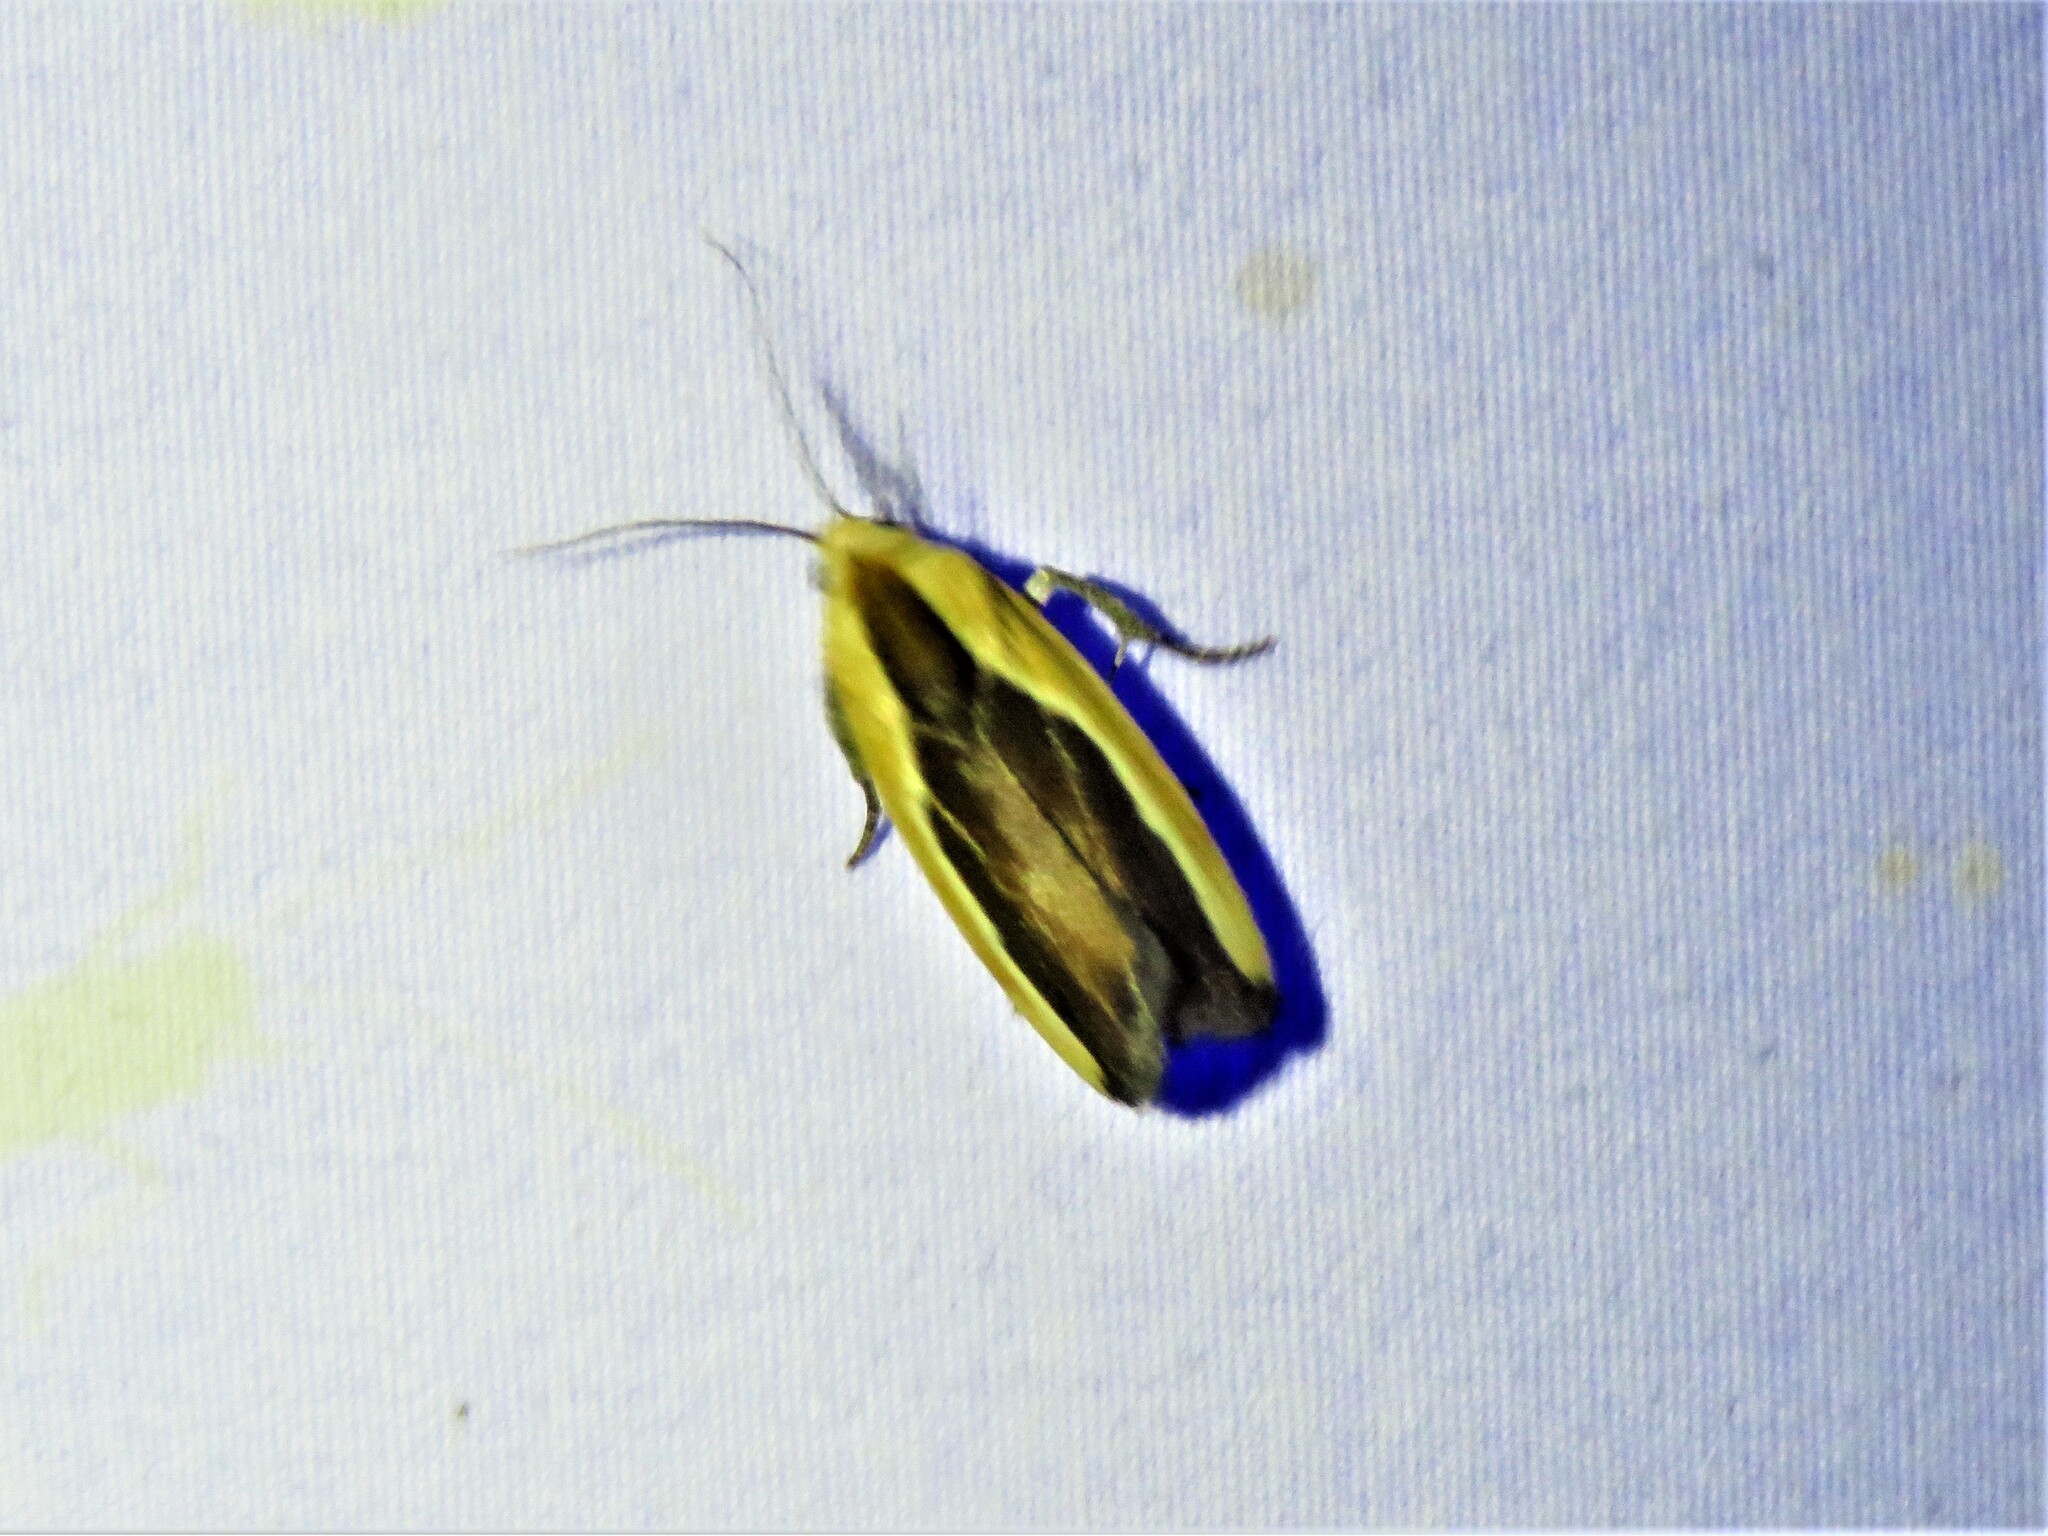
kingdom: Animalia
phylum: Arthropoda
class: Insecta
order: Lepidoptera
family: Noctuidae
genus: Acontia
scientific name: Acontia exigua
